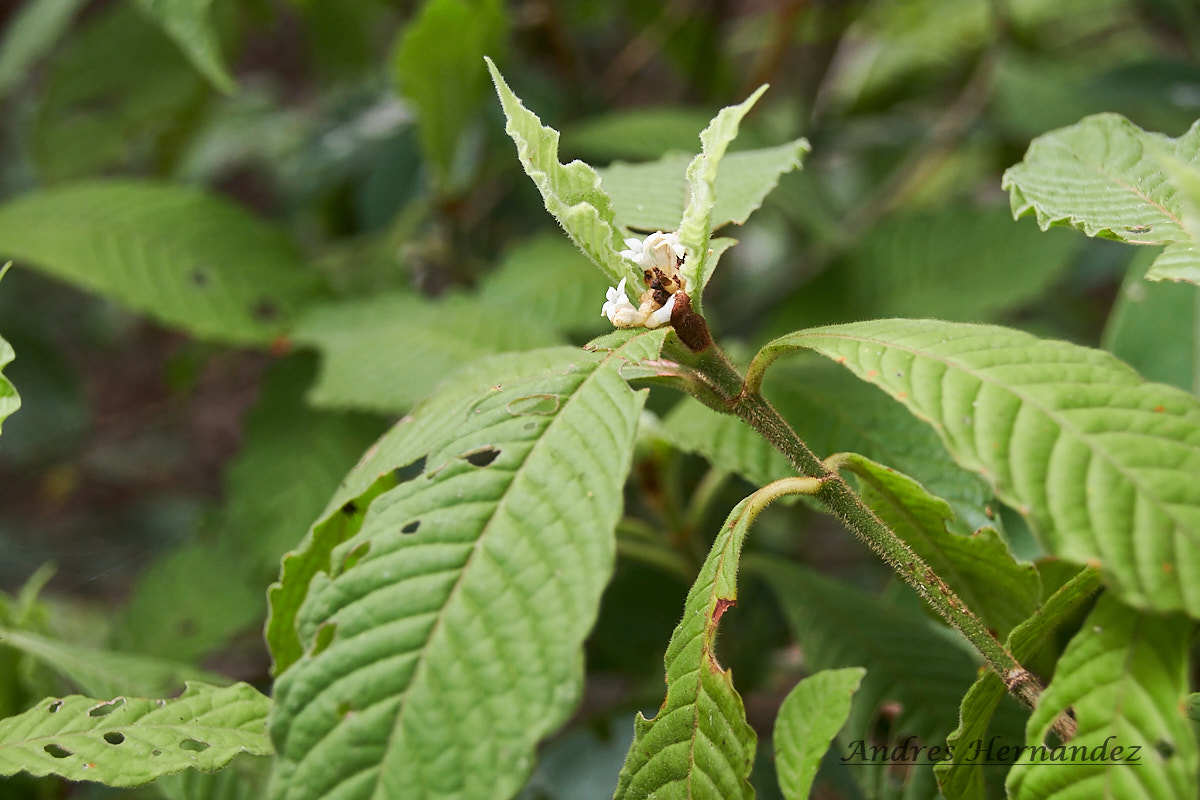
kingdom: Plantae
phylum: Tracheophyta
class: Magnoliopsida
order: Gentianales
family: Rubiaceae
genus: Psychotria
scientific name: Psychotria nervosa
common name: Bastard cankerberry
